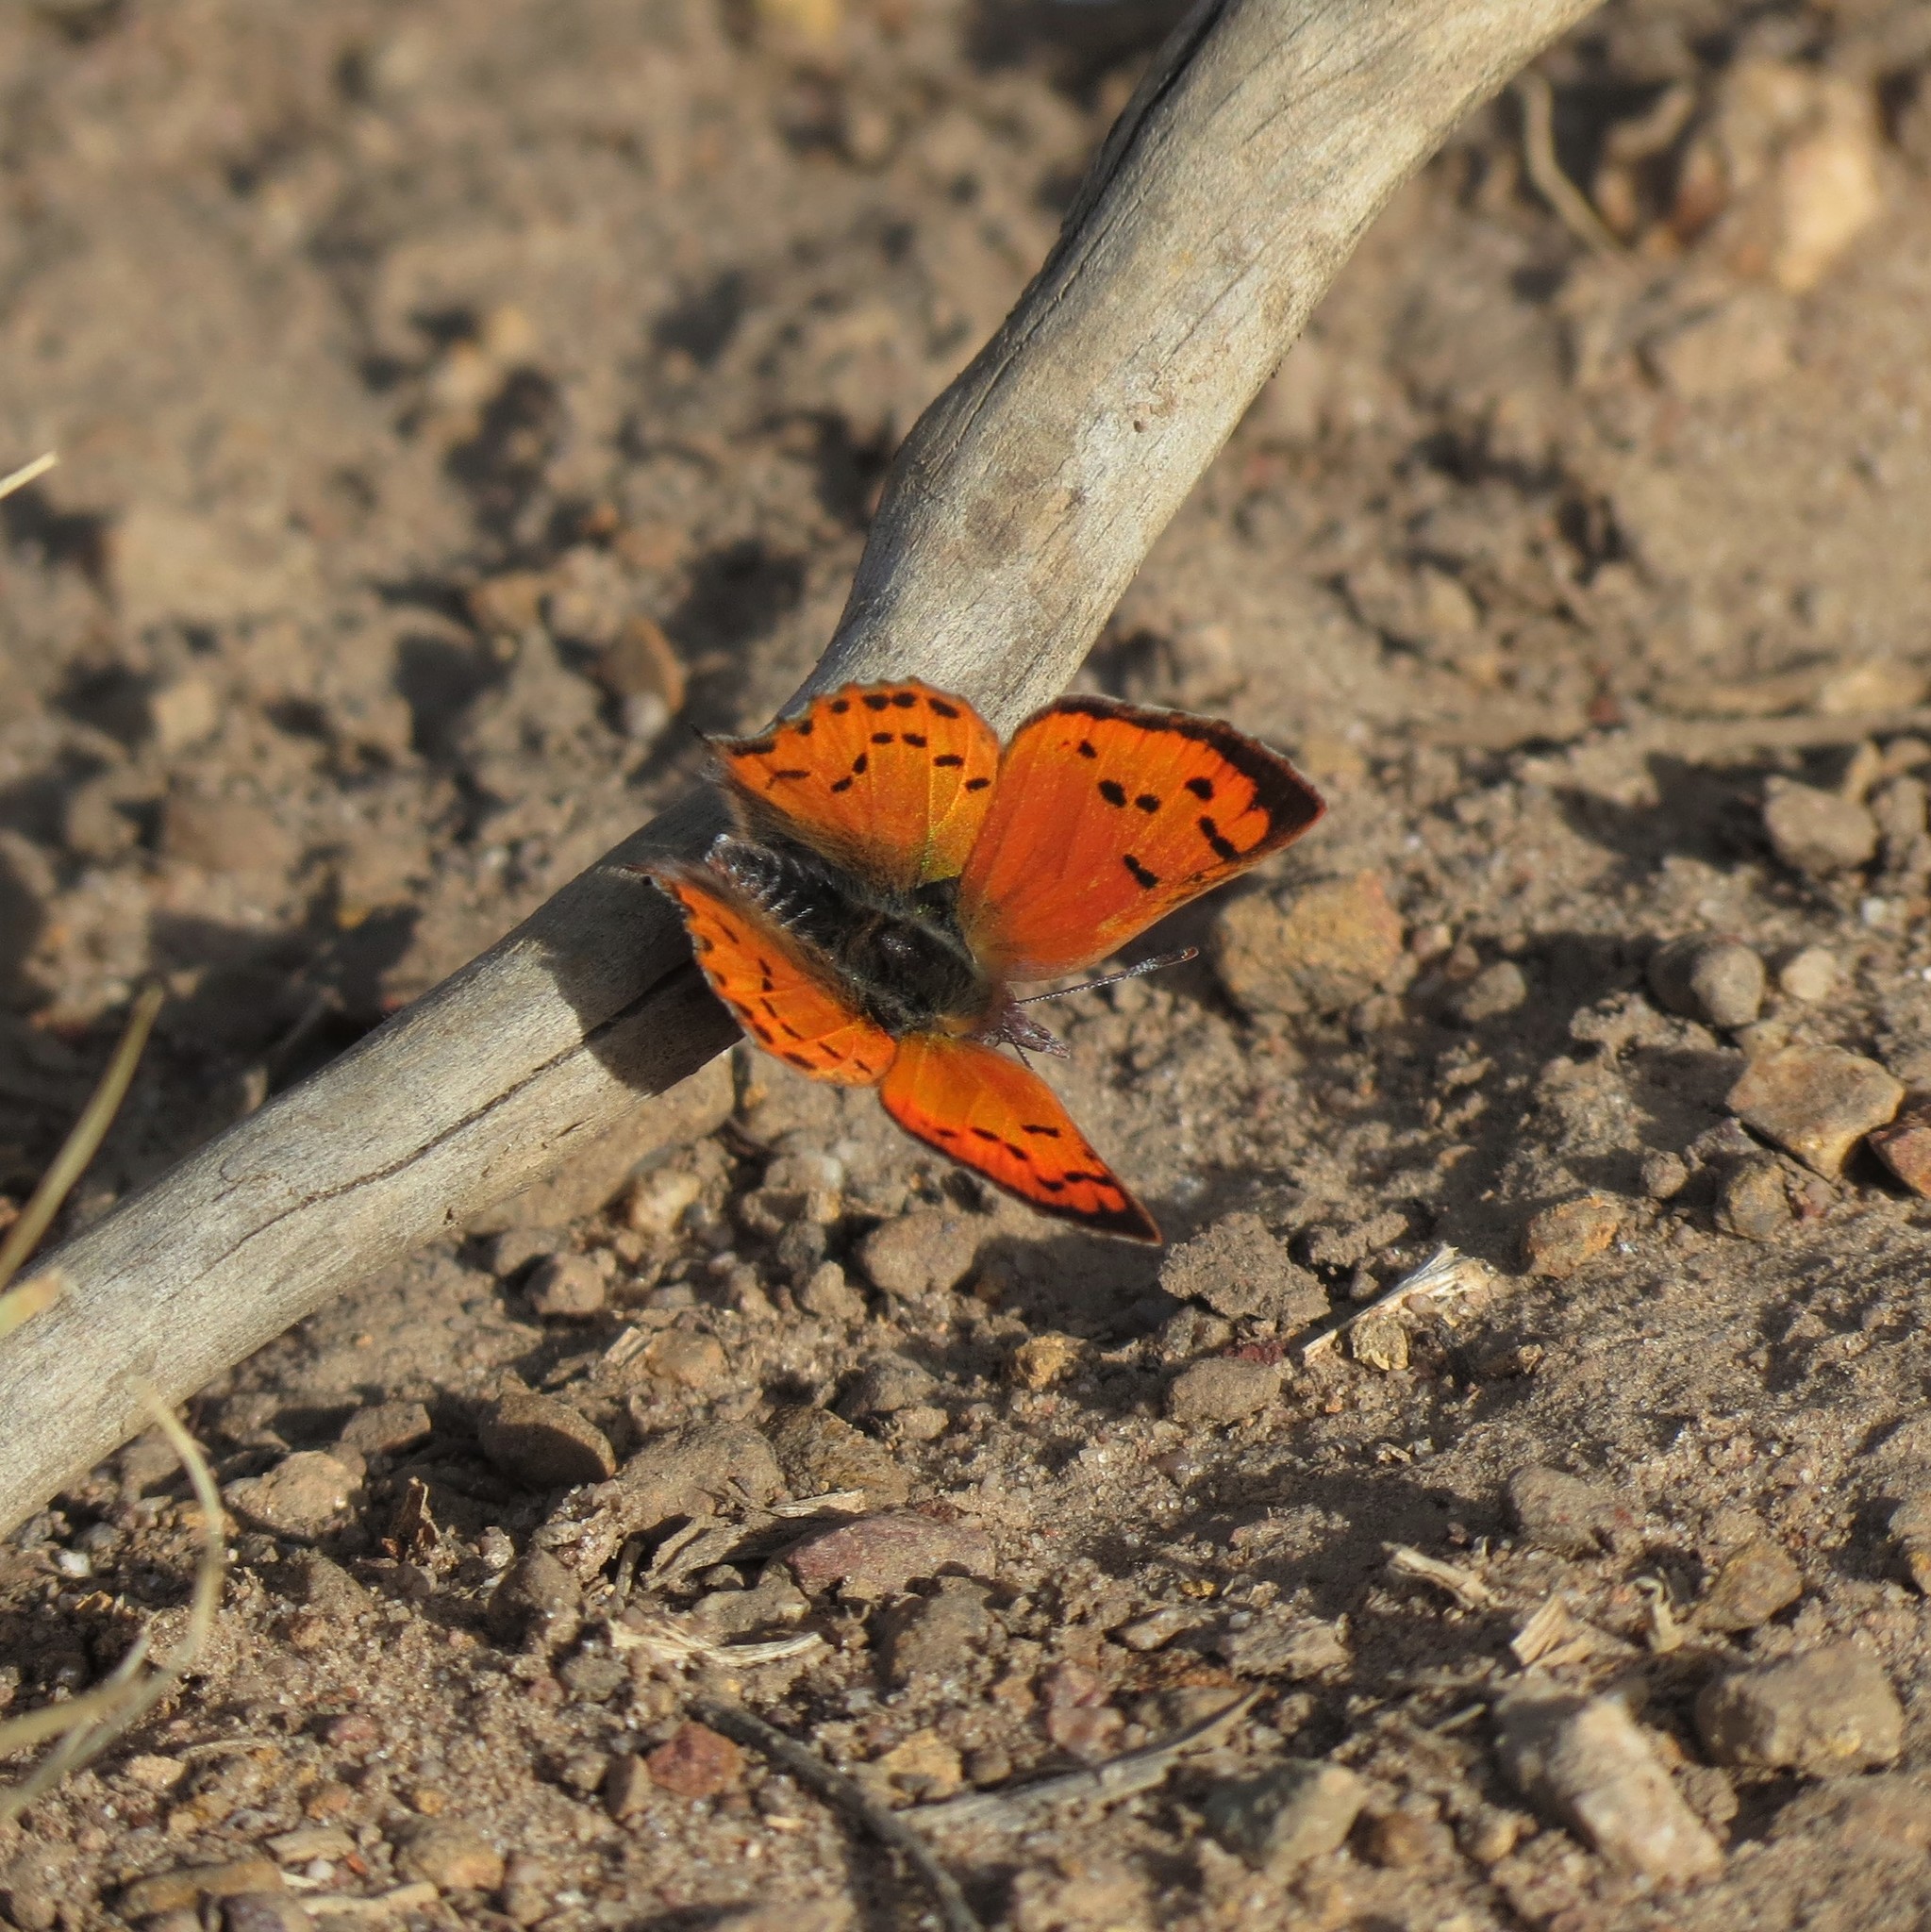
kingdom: Animalia
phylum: Arthropoda
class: Insecta
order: Lepidoptera
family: Lycaenidae
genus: Zeritis
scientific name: Zeritis chrysaor
